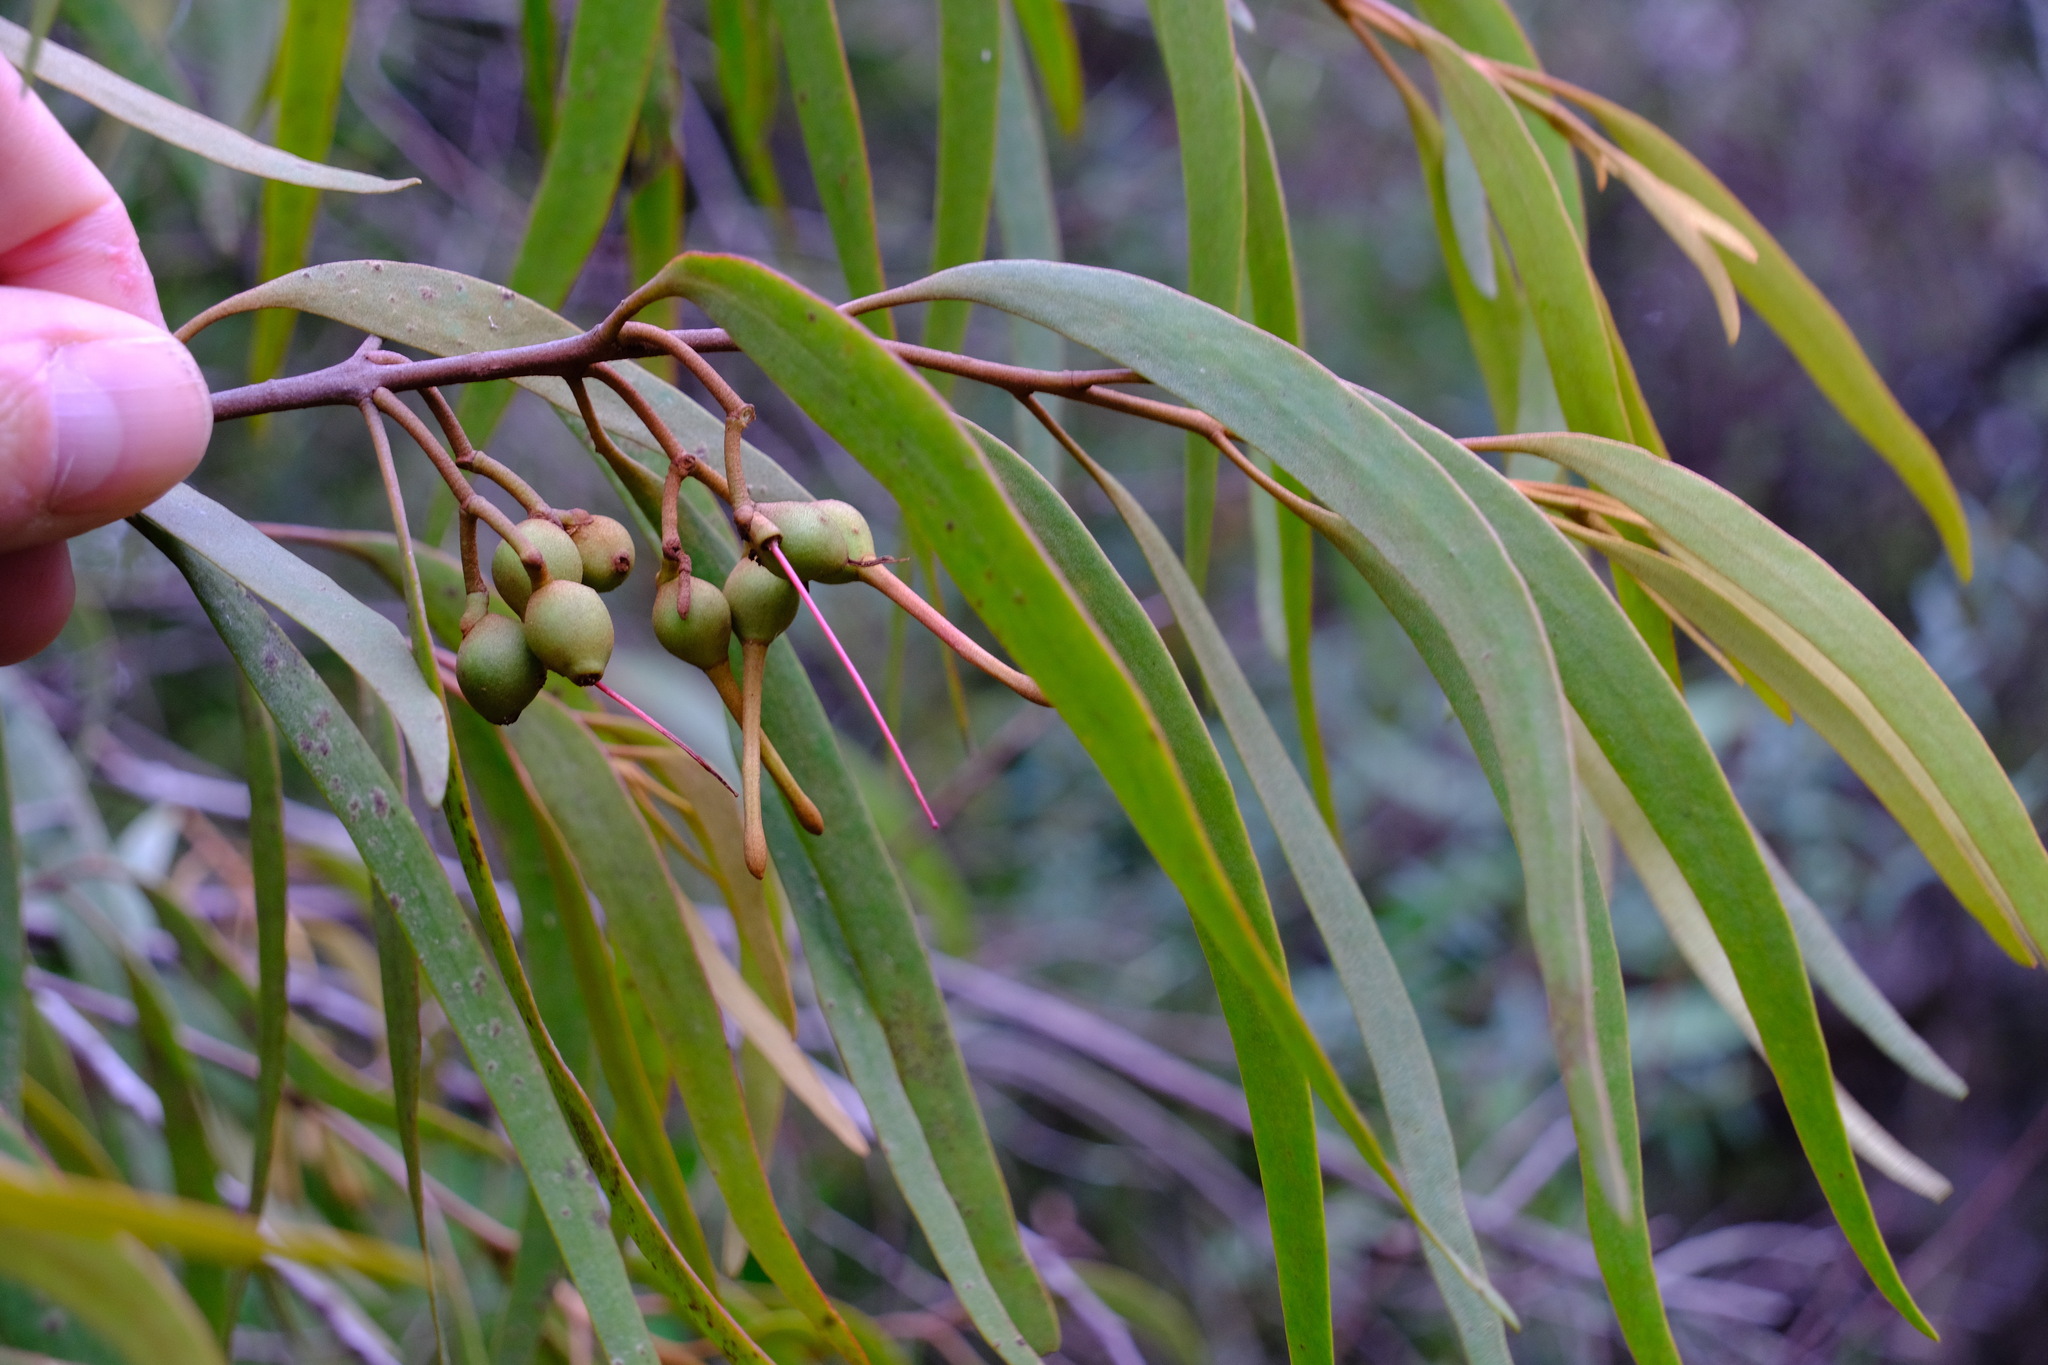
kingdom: Plantae
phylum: Tracheophyta
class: Magnoliopsida
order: Santalales
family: Loranthaceae
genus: Amyema
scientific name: Amyema pendula
